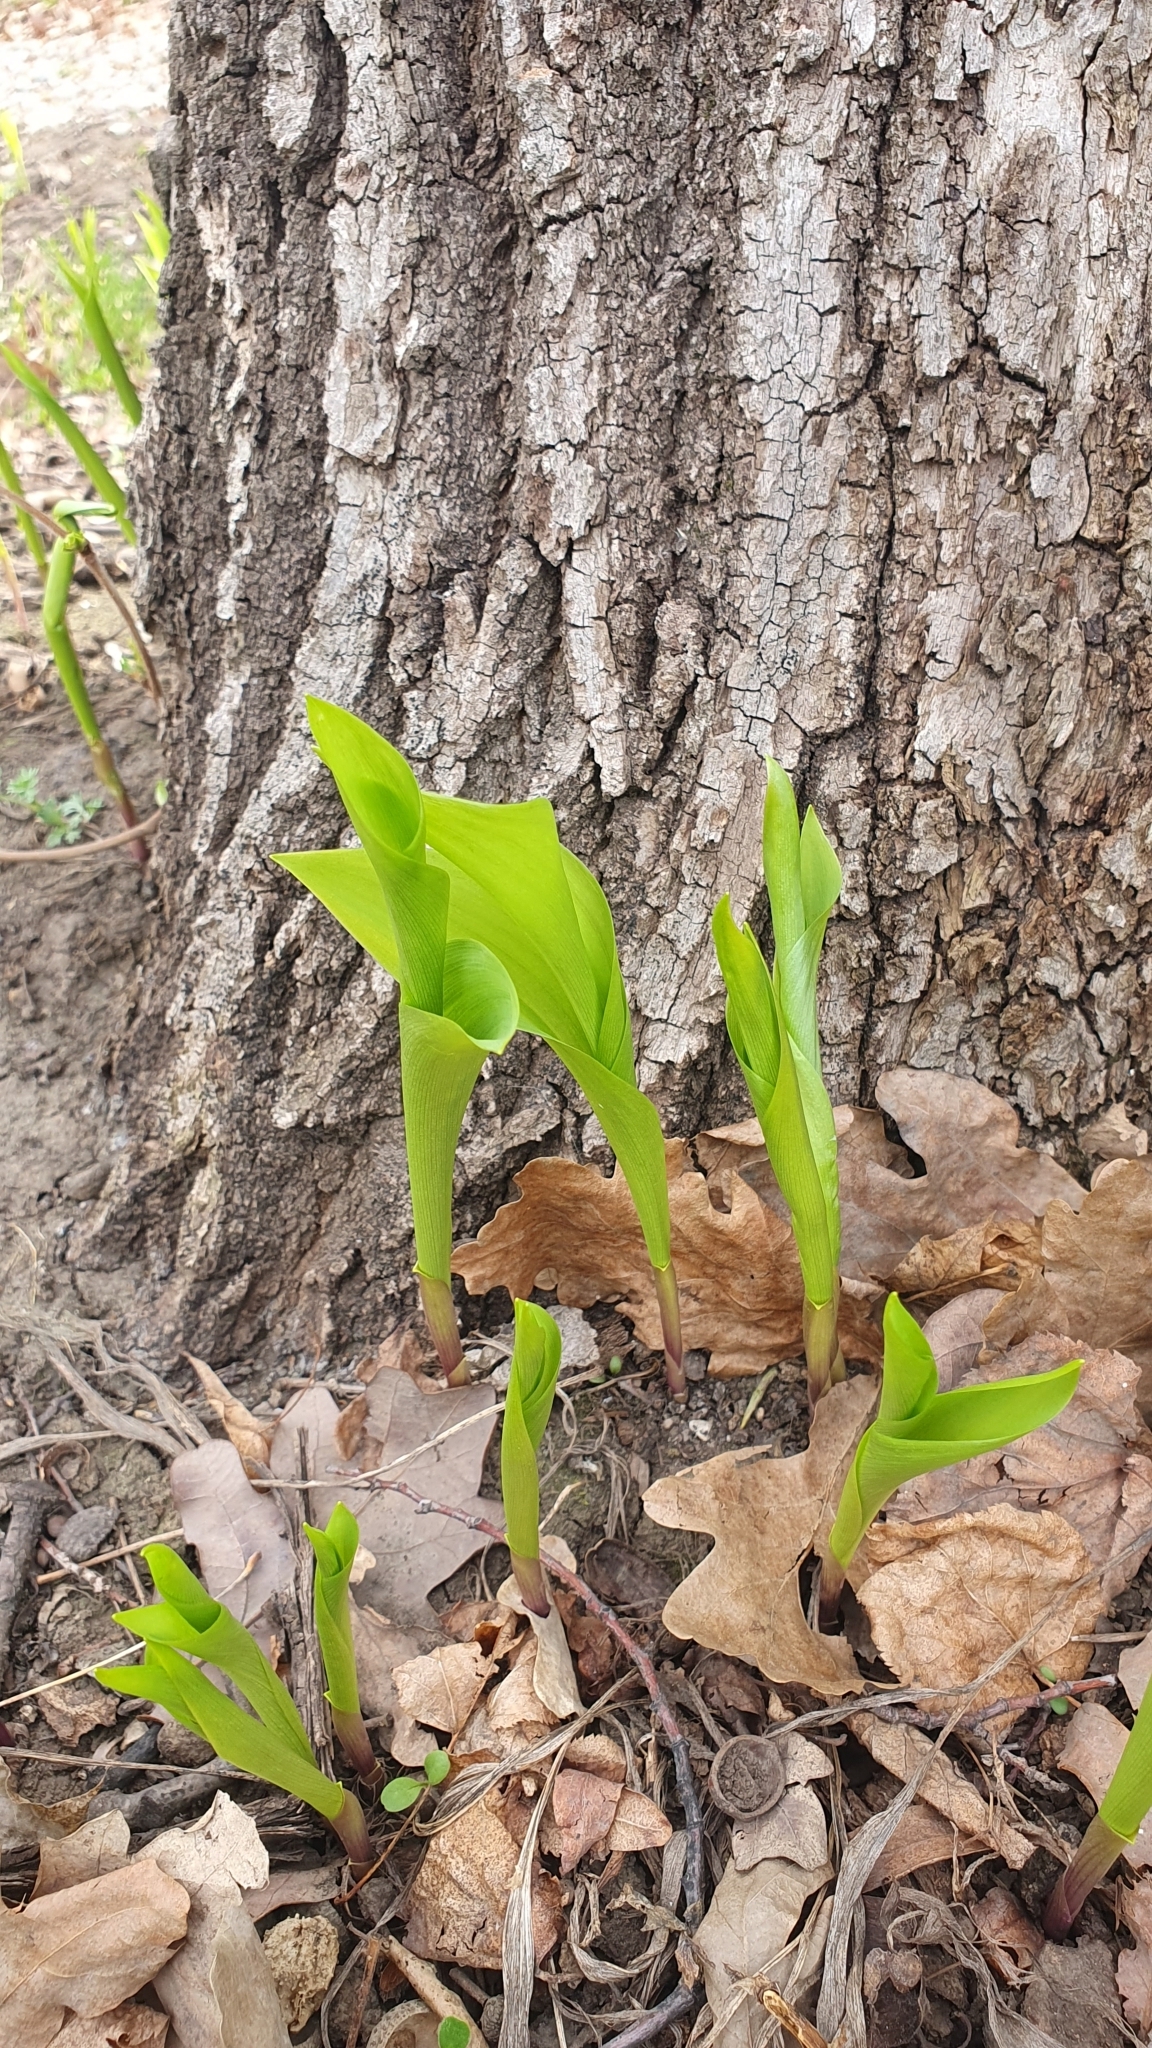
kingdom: Plantae
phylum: Tracheophyta
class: Liliopsida
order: Asparagales
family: Asparagaceae
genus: Convallaria
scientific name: Convallaria majalis
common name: Lily-of-the-valley
